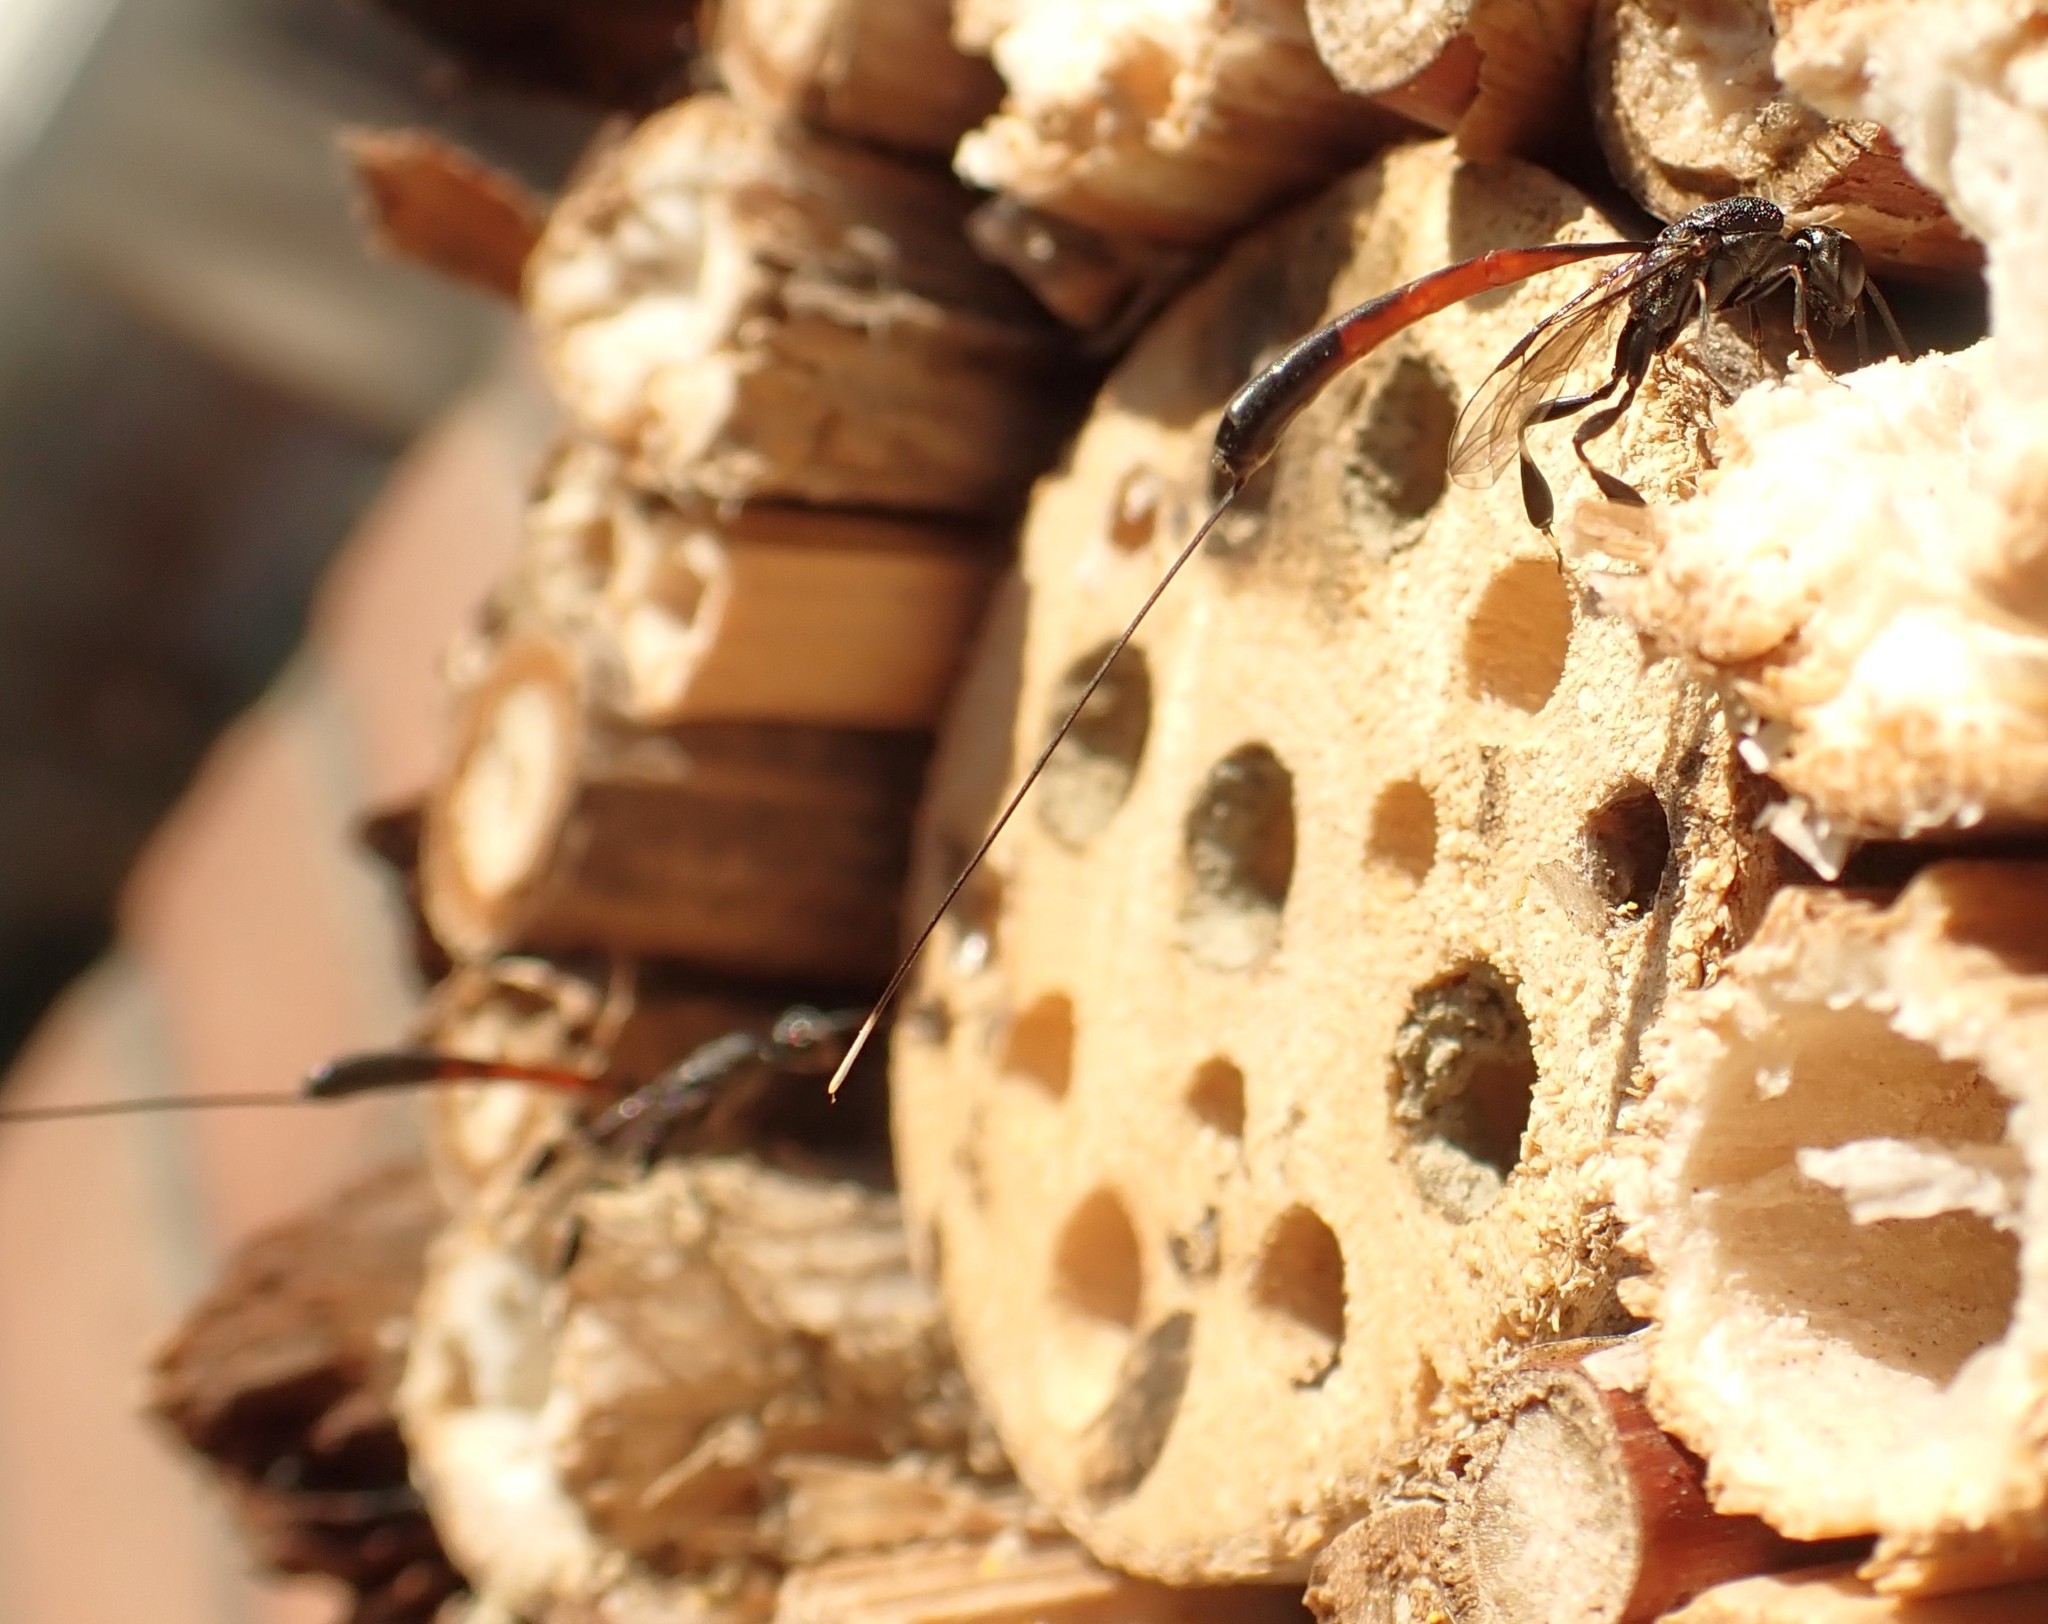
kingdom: Animalia
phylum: Arthropoda
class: Insecta
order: Hymenoptera
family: Gasteruptiidae
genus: Gasteruption
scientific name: Gasteruption jaculator
